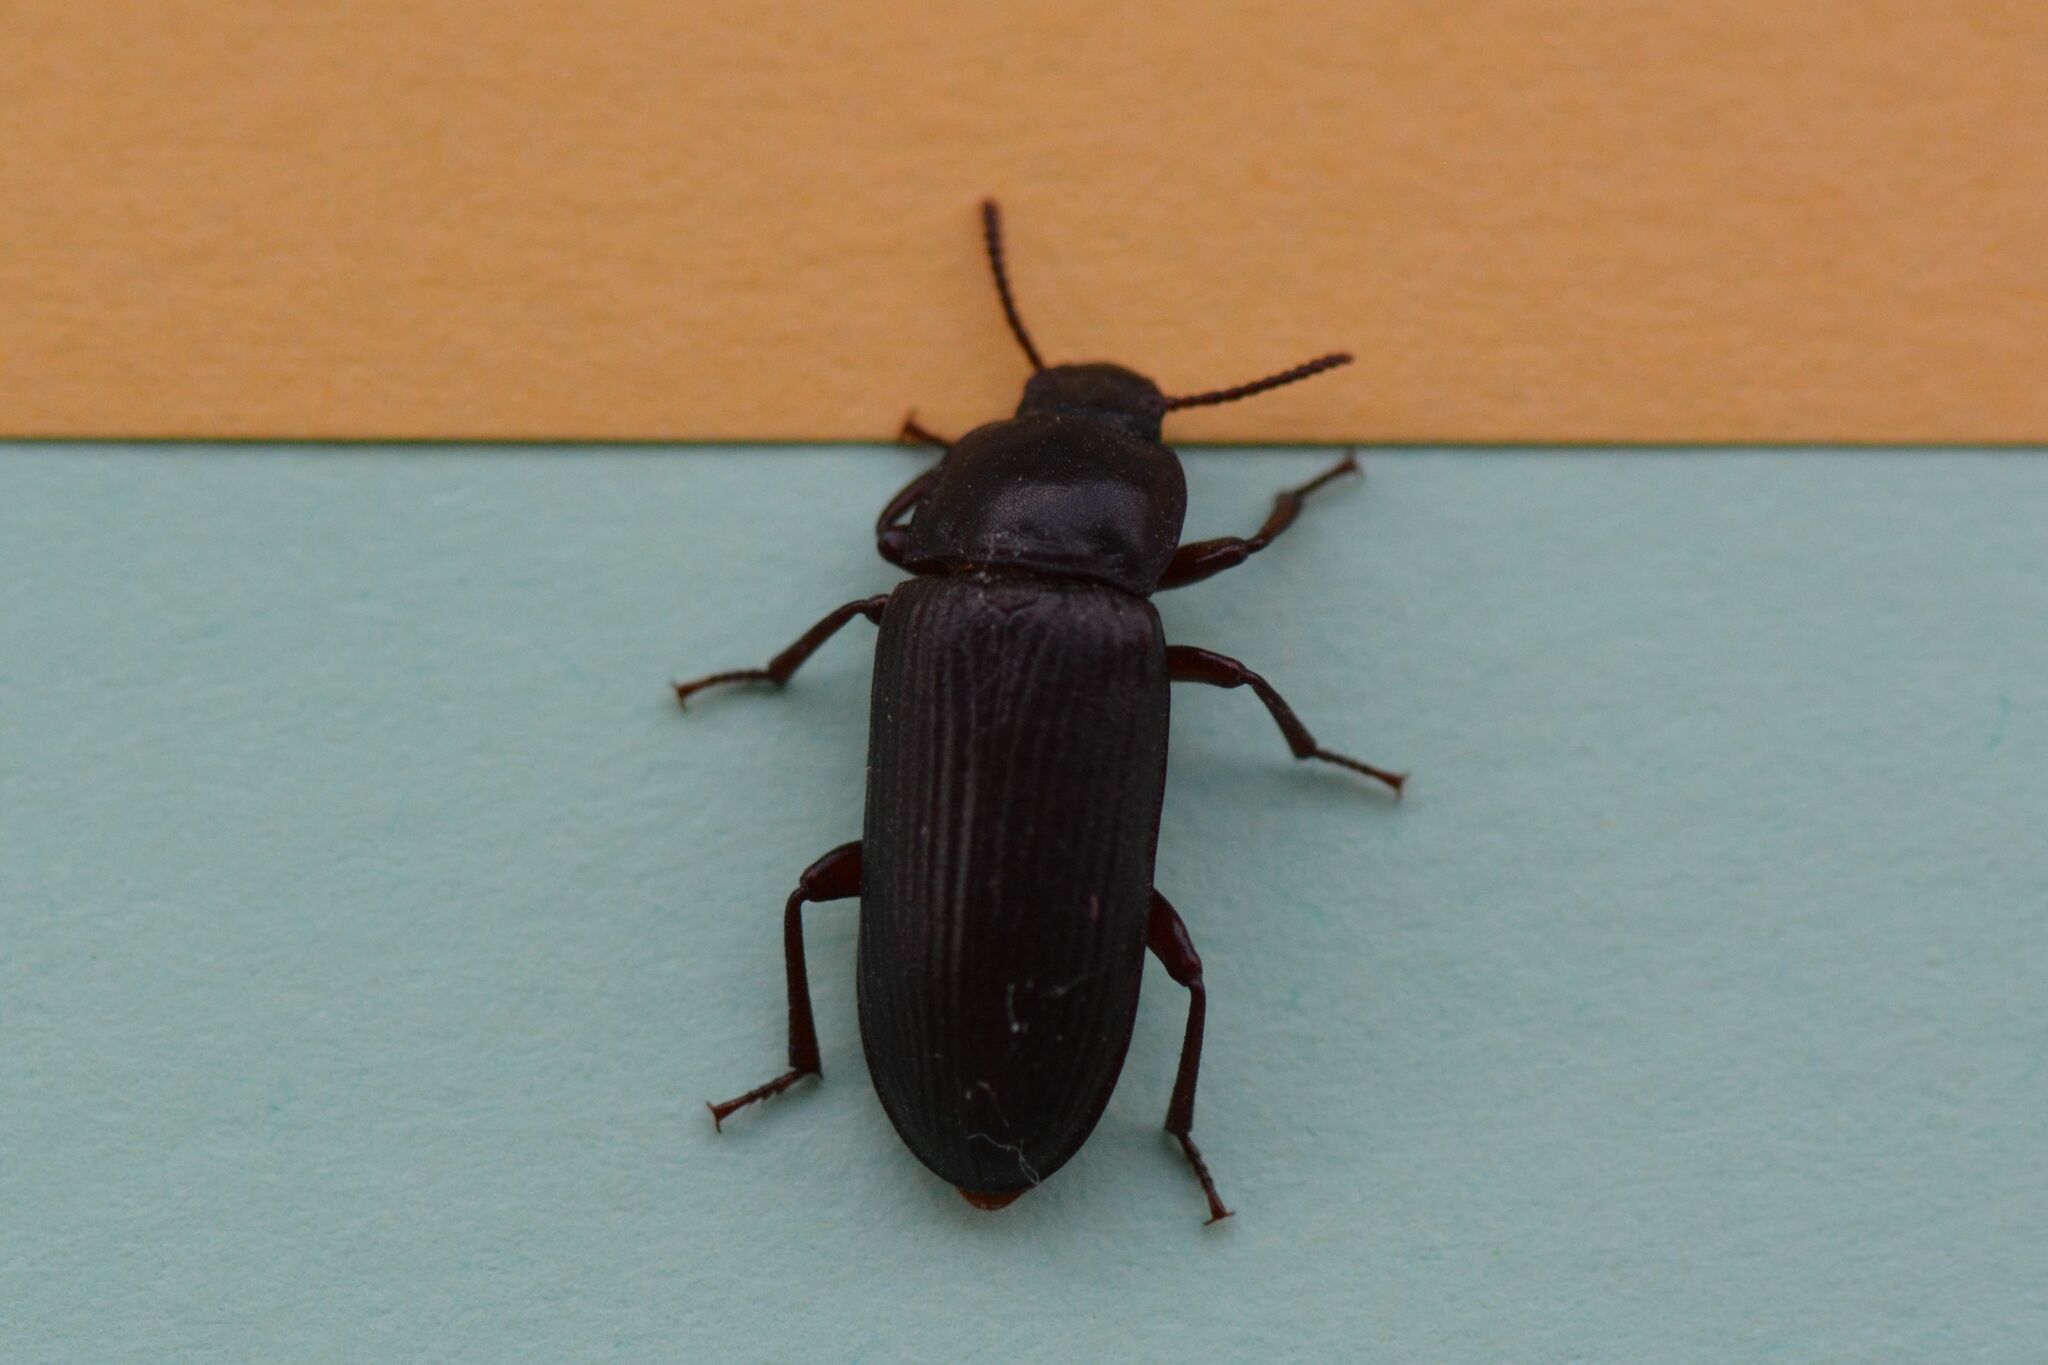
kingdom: Animalia
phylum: Arthropoda
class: Insecta
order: Coleoptera
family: Tenebrionidae
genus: Tenebrio
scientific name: Tenebrio molitor
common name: Hardback beetle
